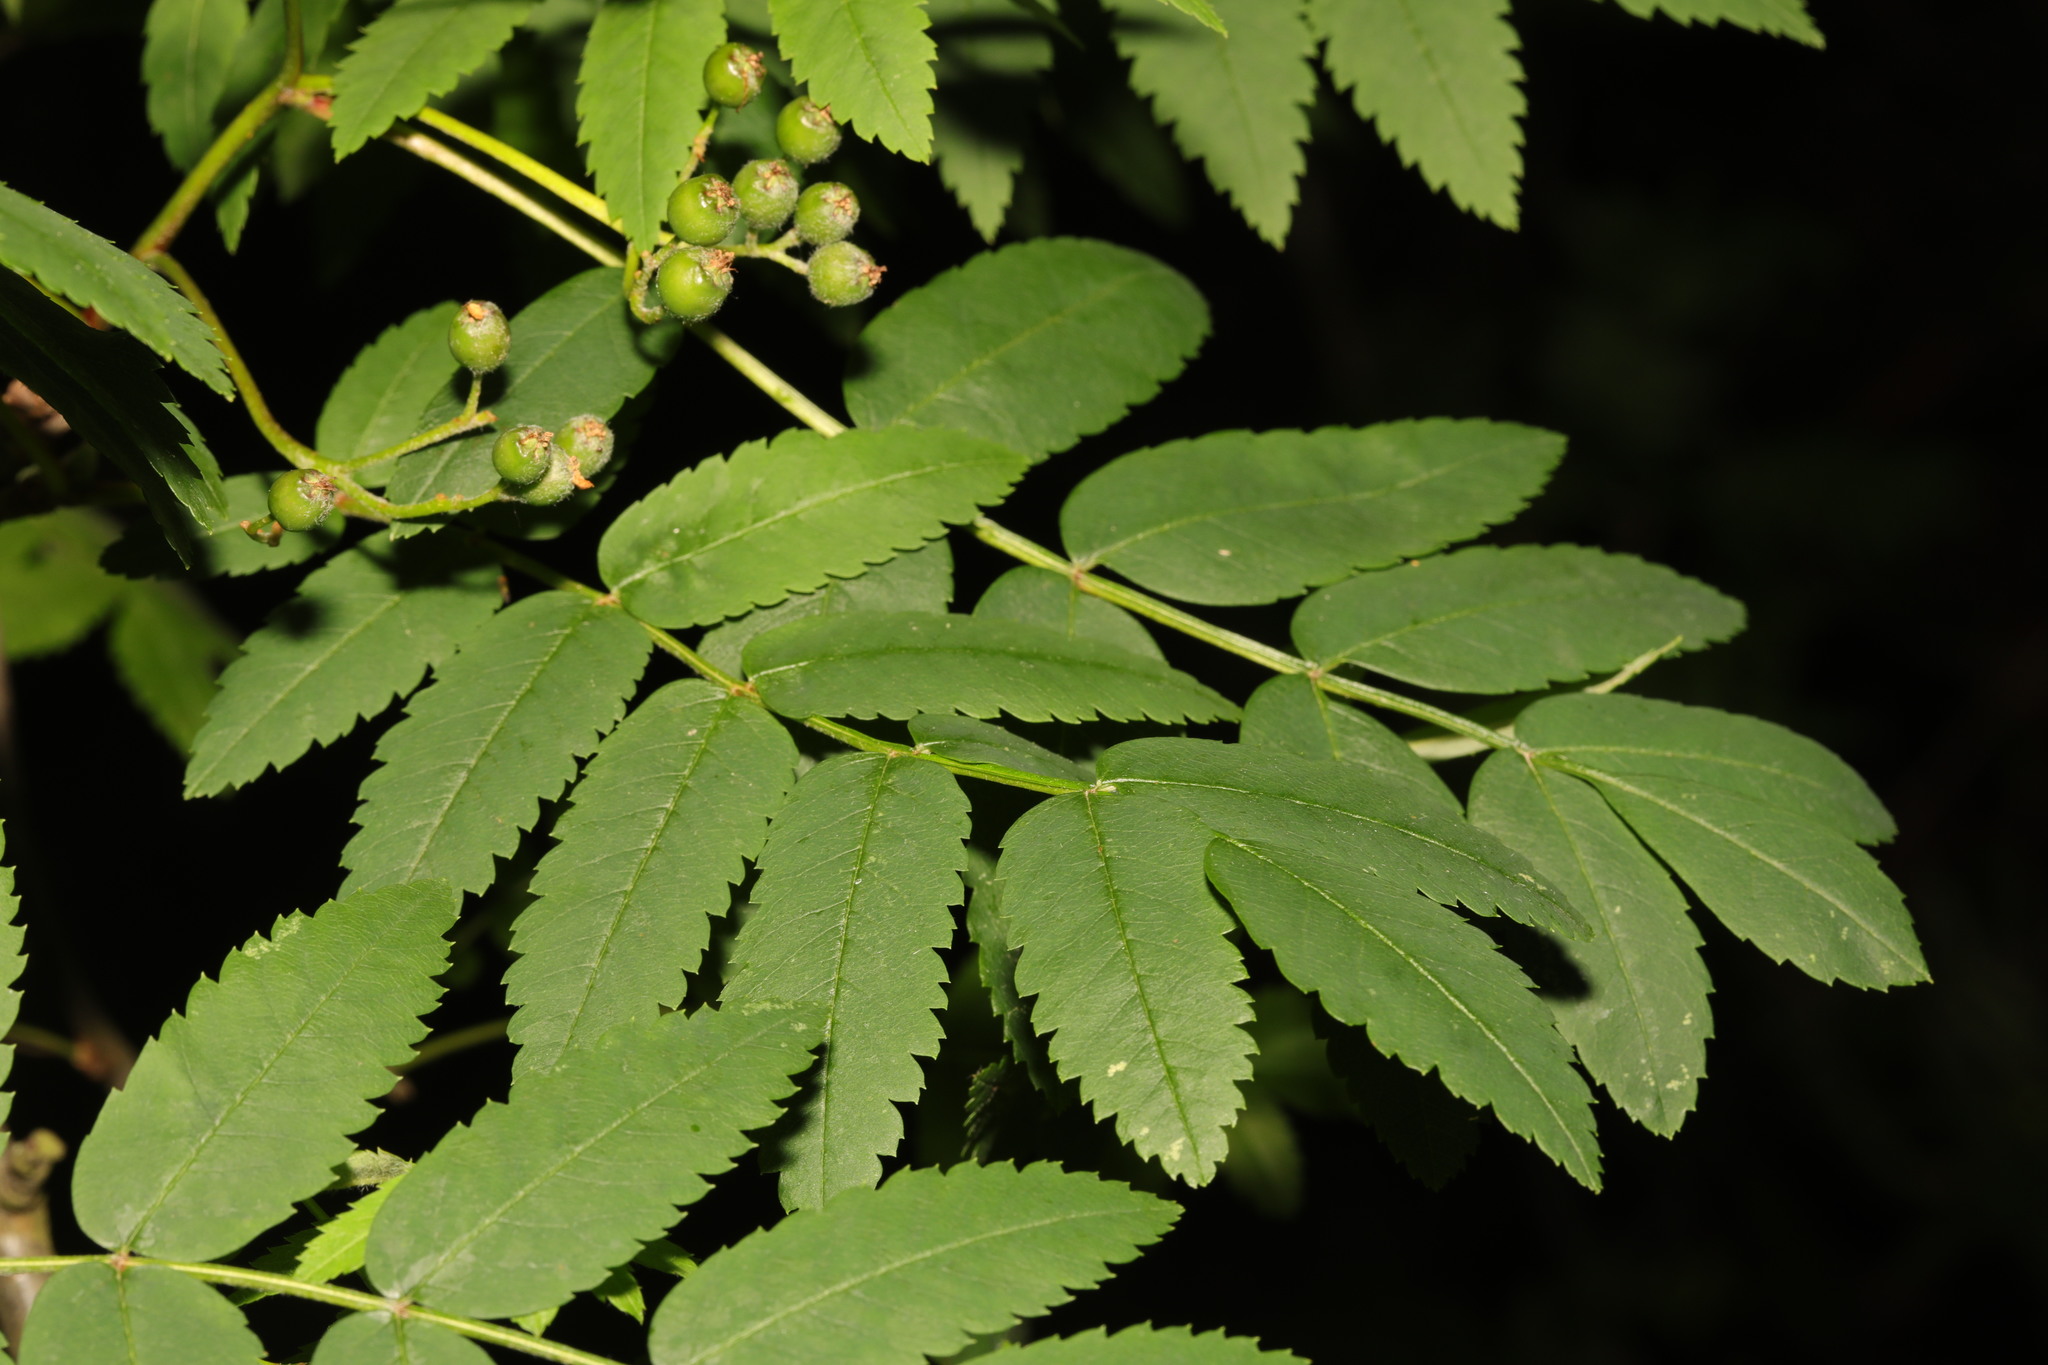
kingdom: Plantae
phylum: Tracheophyta
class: Magnoliopsida
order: Rosales
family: Rosaceae
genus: Sorbus
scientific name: Sorbus aucuparia
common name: Rowan
